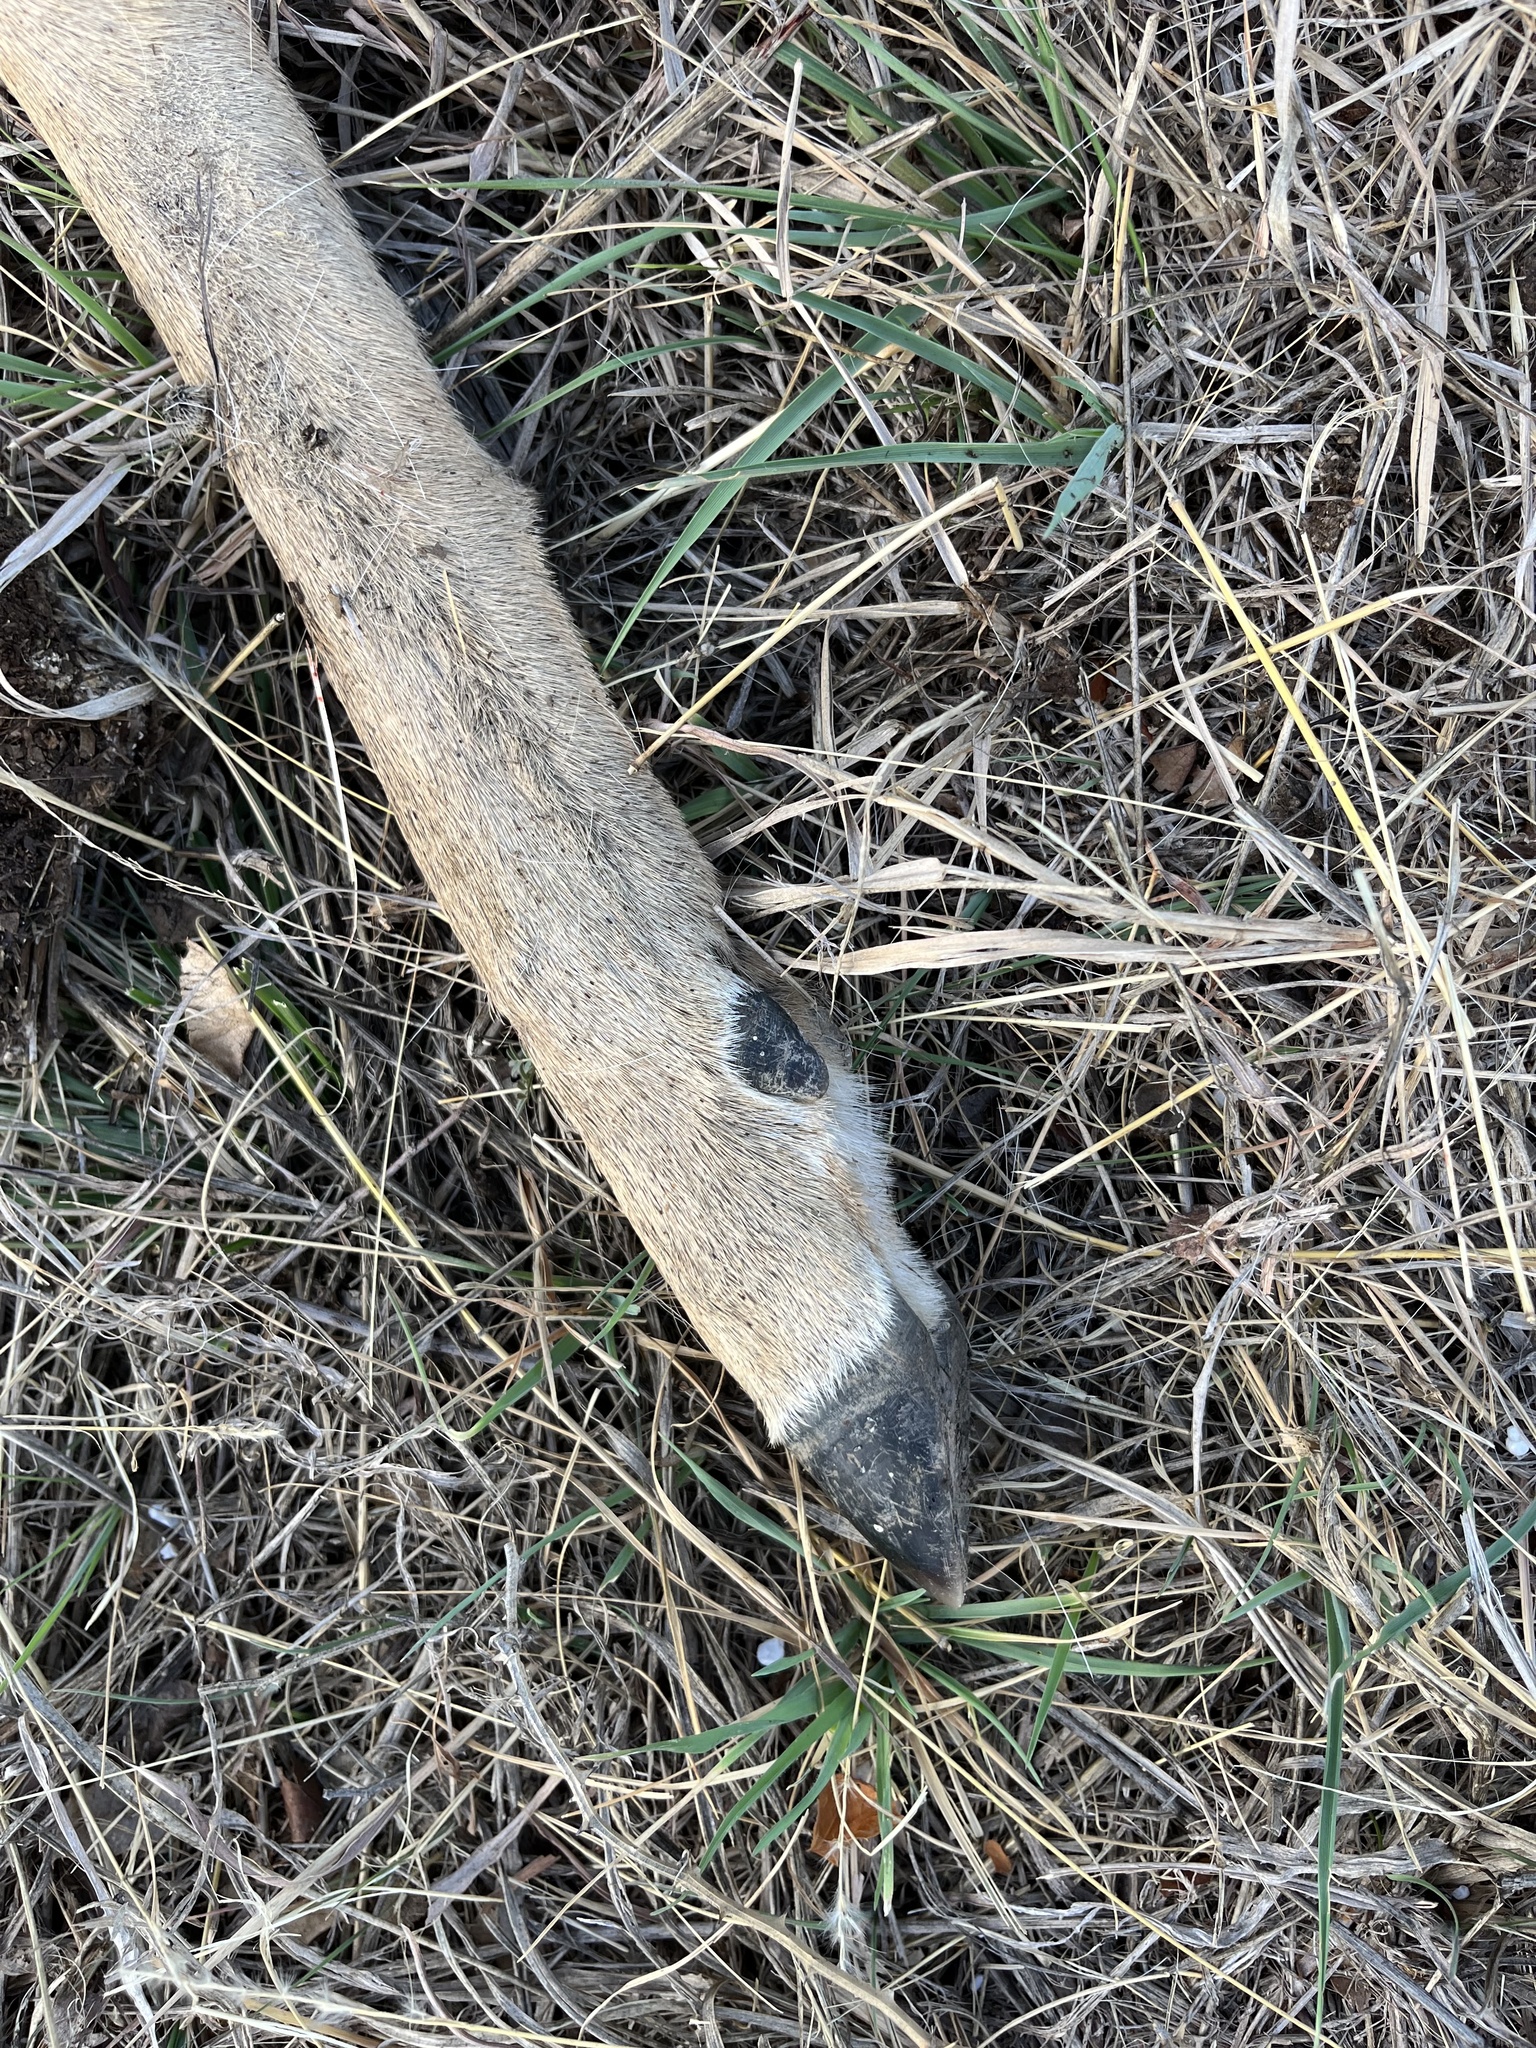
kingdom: Animalia
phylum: Chordata
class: Mammalia
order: Artiodactyla
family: Cervidae
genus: Odocoileus
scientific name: Odocoileus virginianus
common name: White-tailed deer
